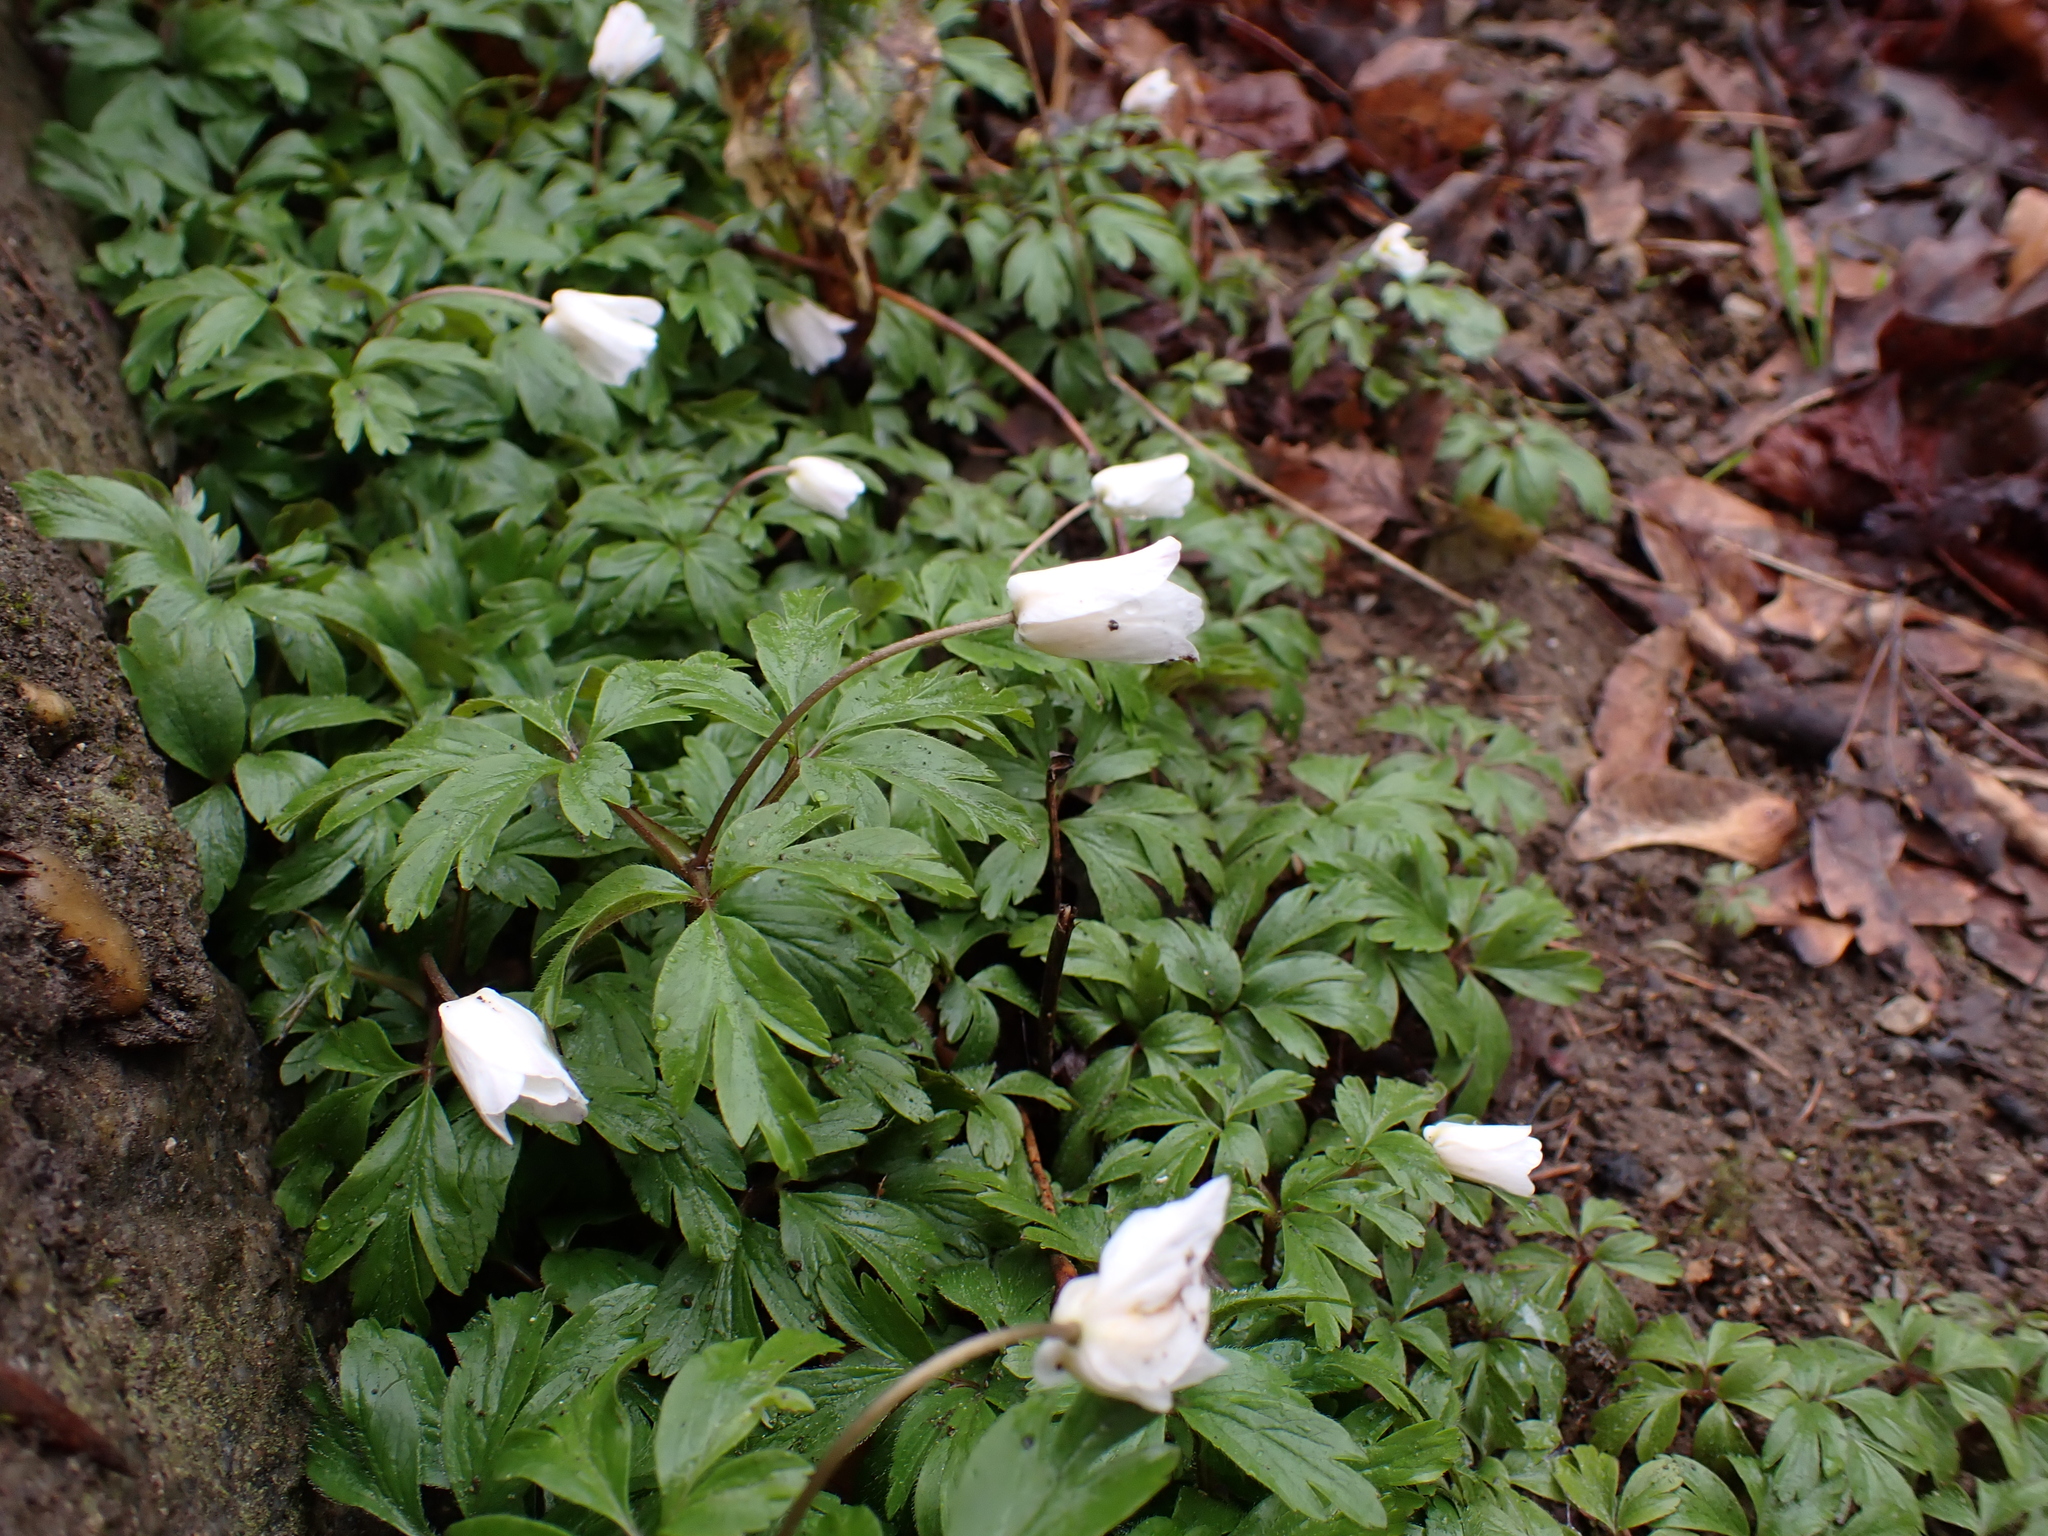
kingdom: Plantae
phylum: Tracheophyta
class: Magnoliopsida
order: Ranunculales
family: Ranunculaceae
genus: Anemone
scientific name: Anemone nemorosa
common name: Wood anemone
